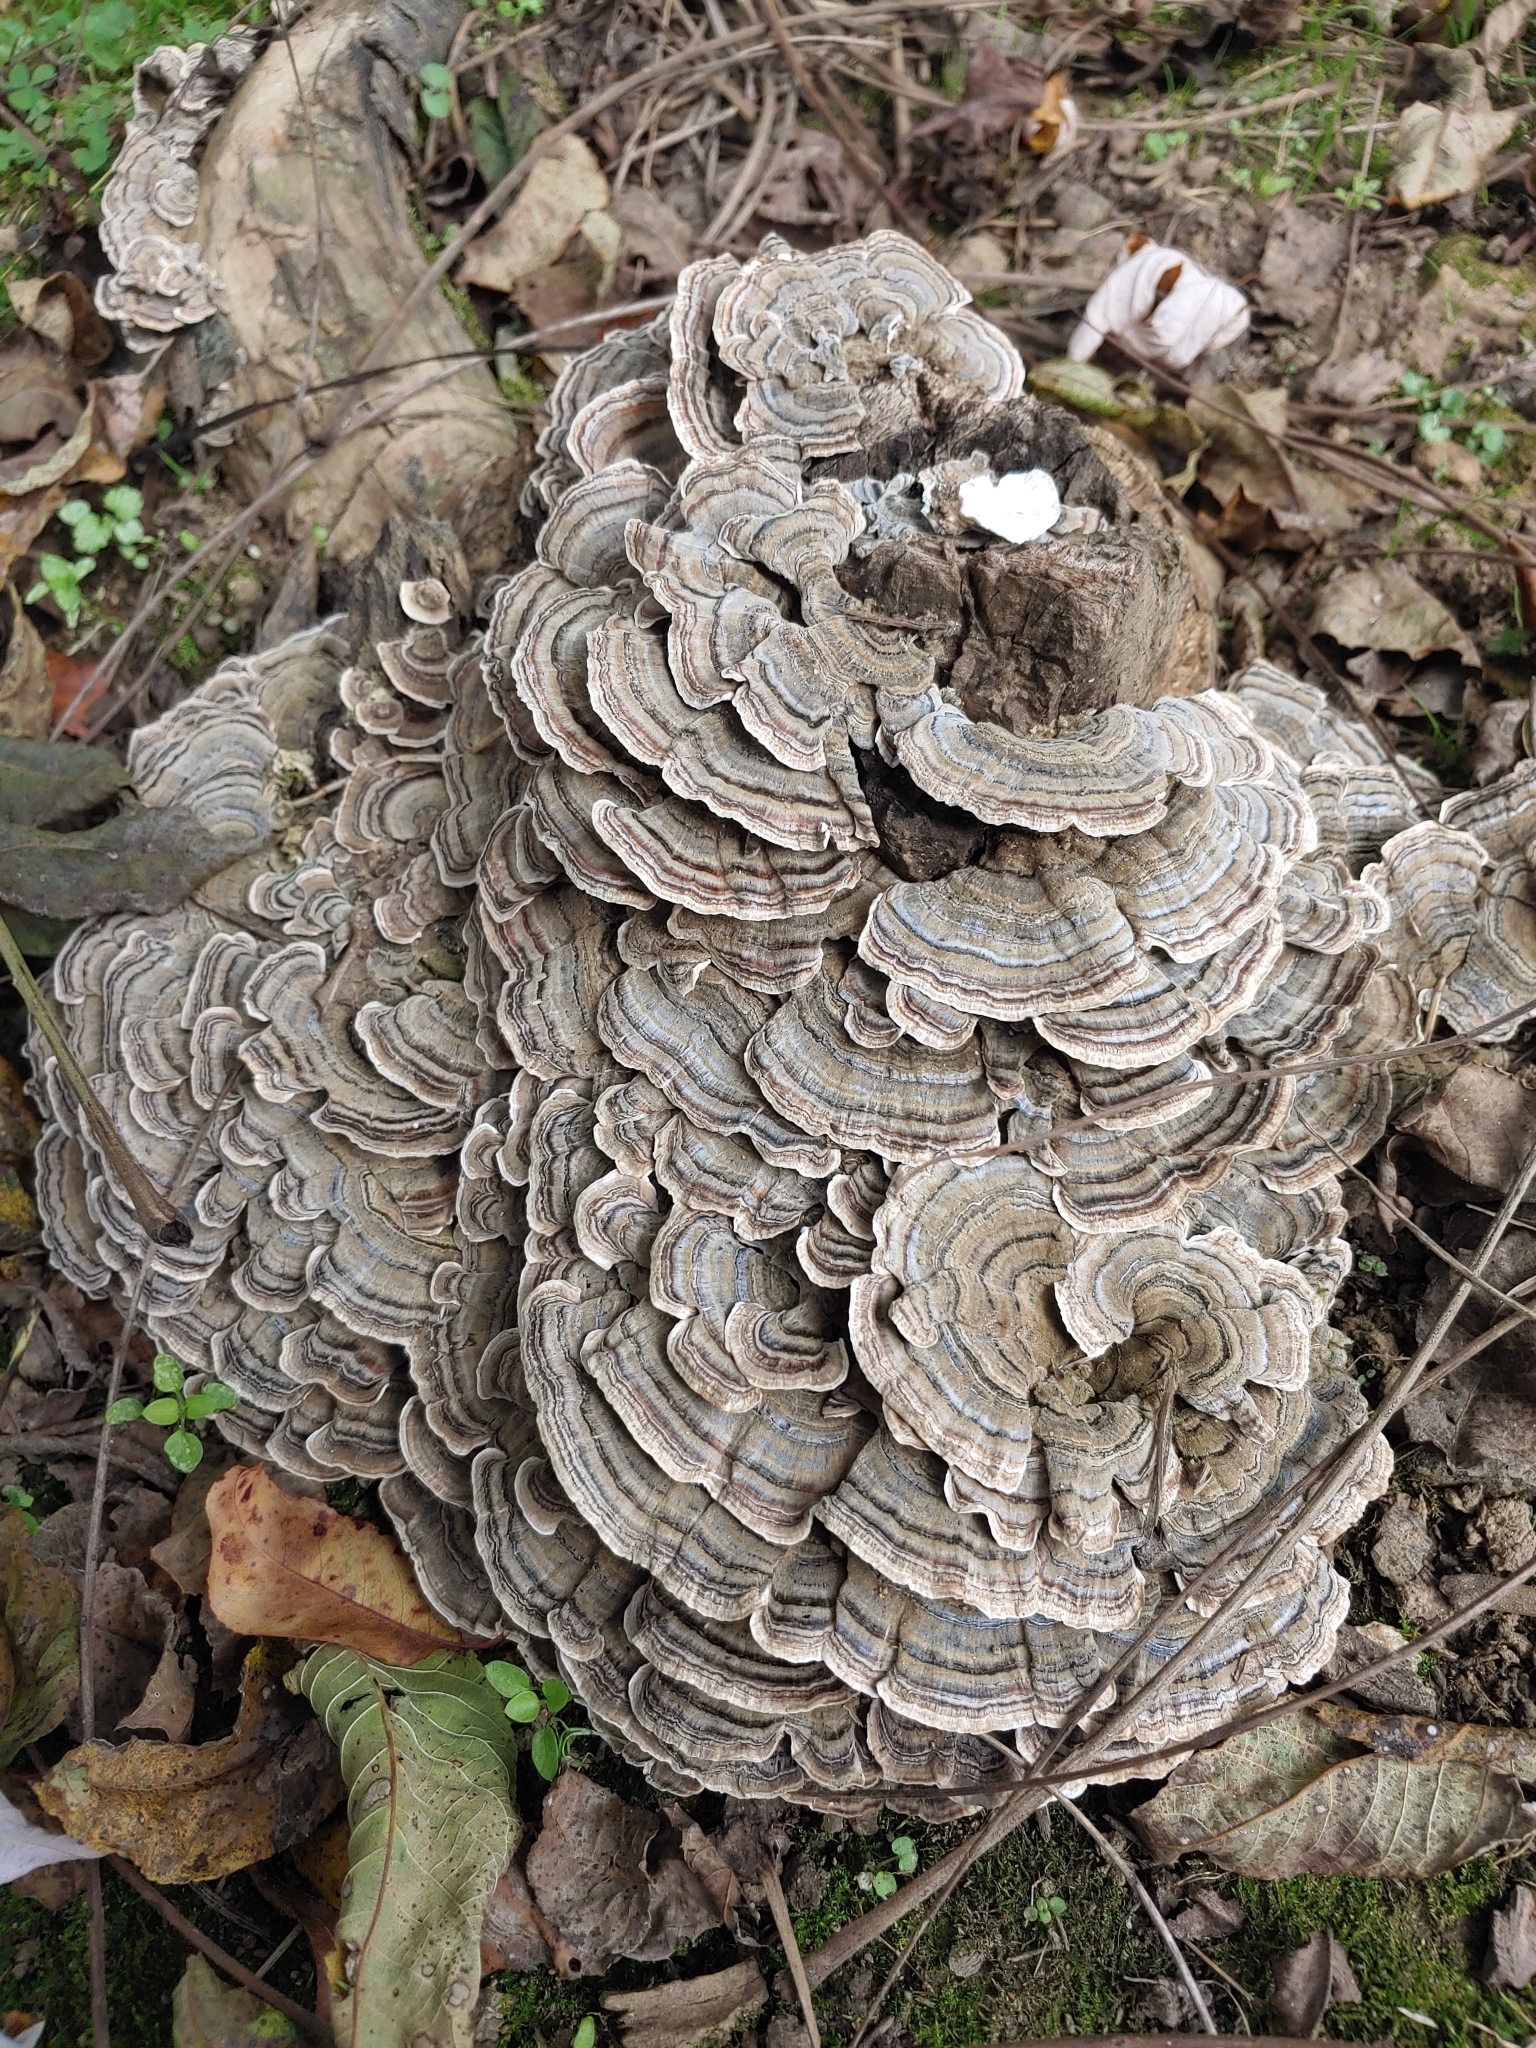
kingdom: Fungi
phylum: Basidiomycota
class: Agaricomycetes
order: Polyporales
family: Polyporaceae
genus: Trametes
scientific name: Trametes versicolor
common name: Turkeytail
